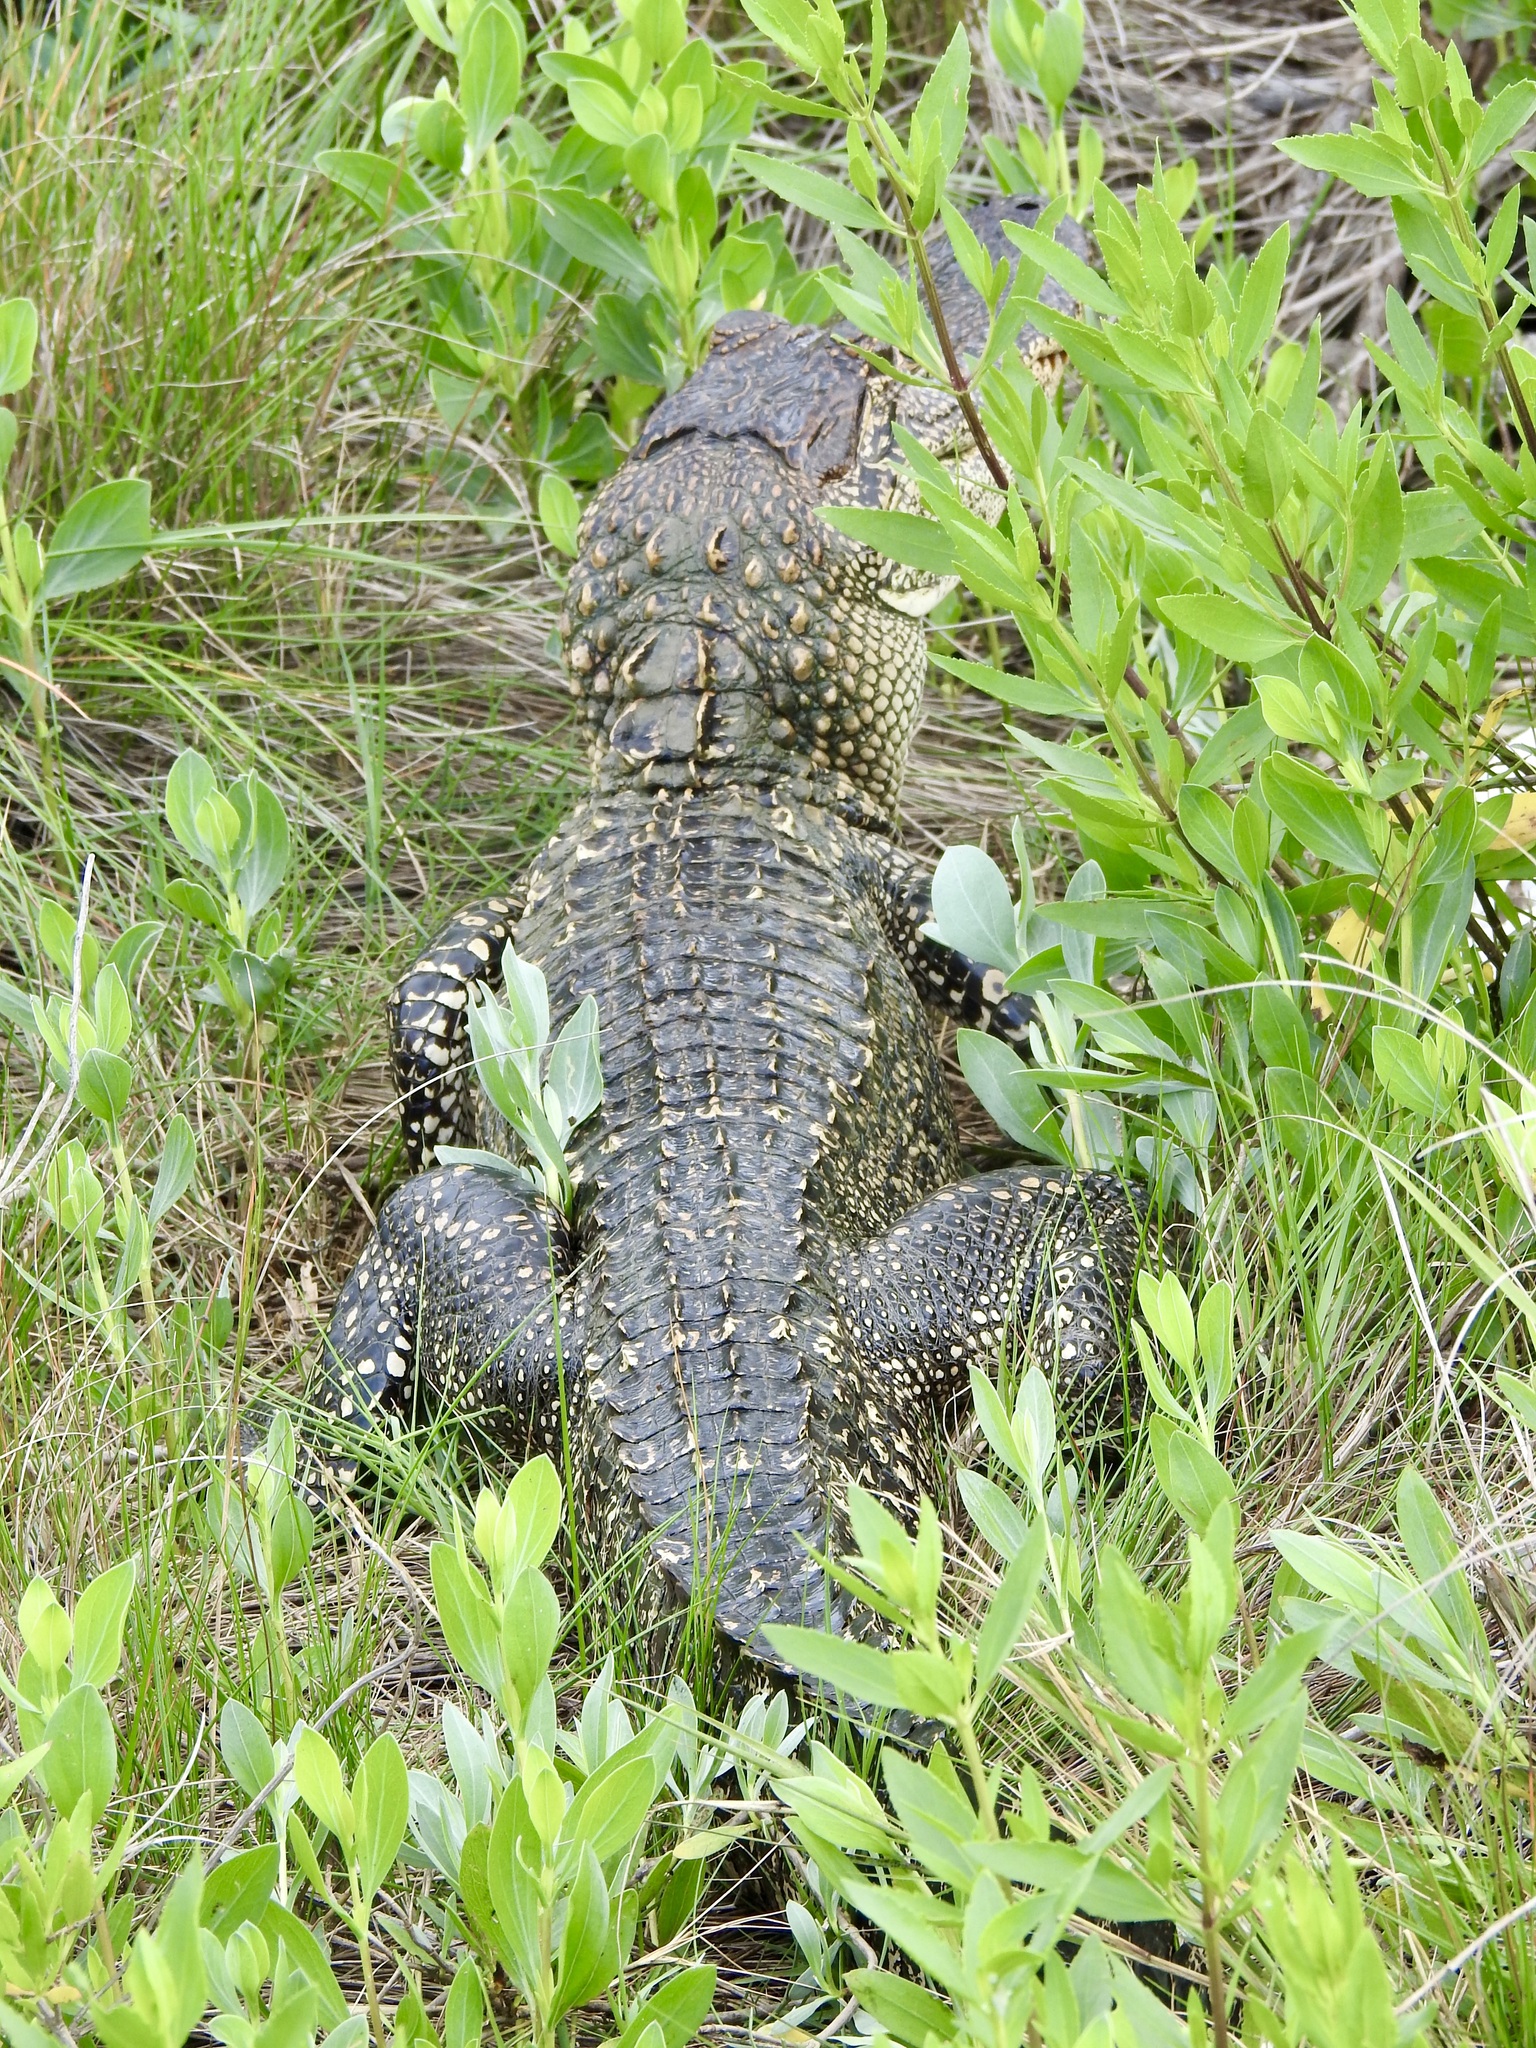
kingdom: Animalia
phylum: Chordata
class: Crocodylia
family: Alligatoridae
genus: Alligator
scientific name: Alligator mississippiensis
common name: American alligator
